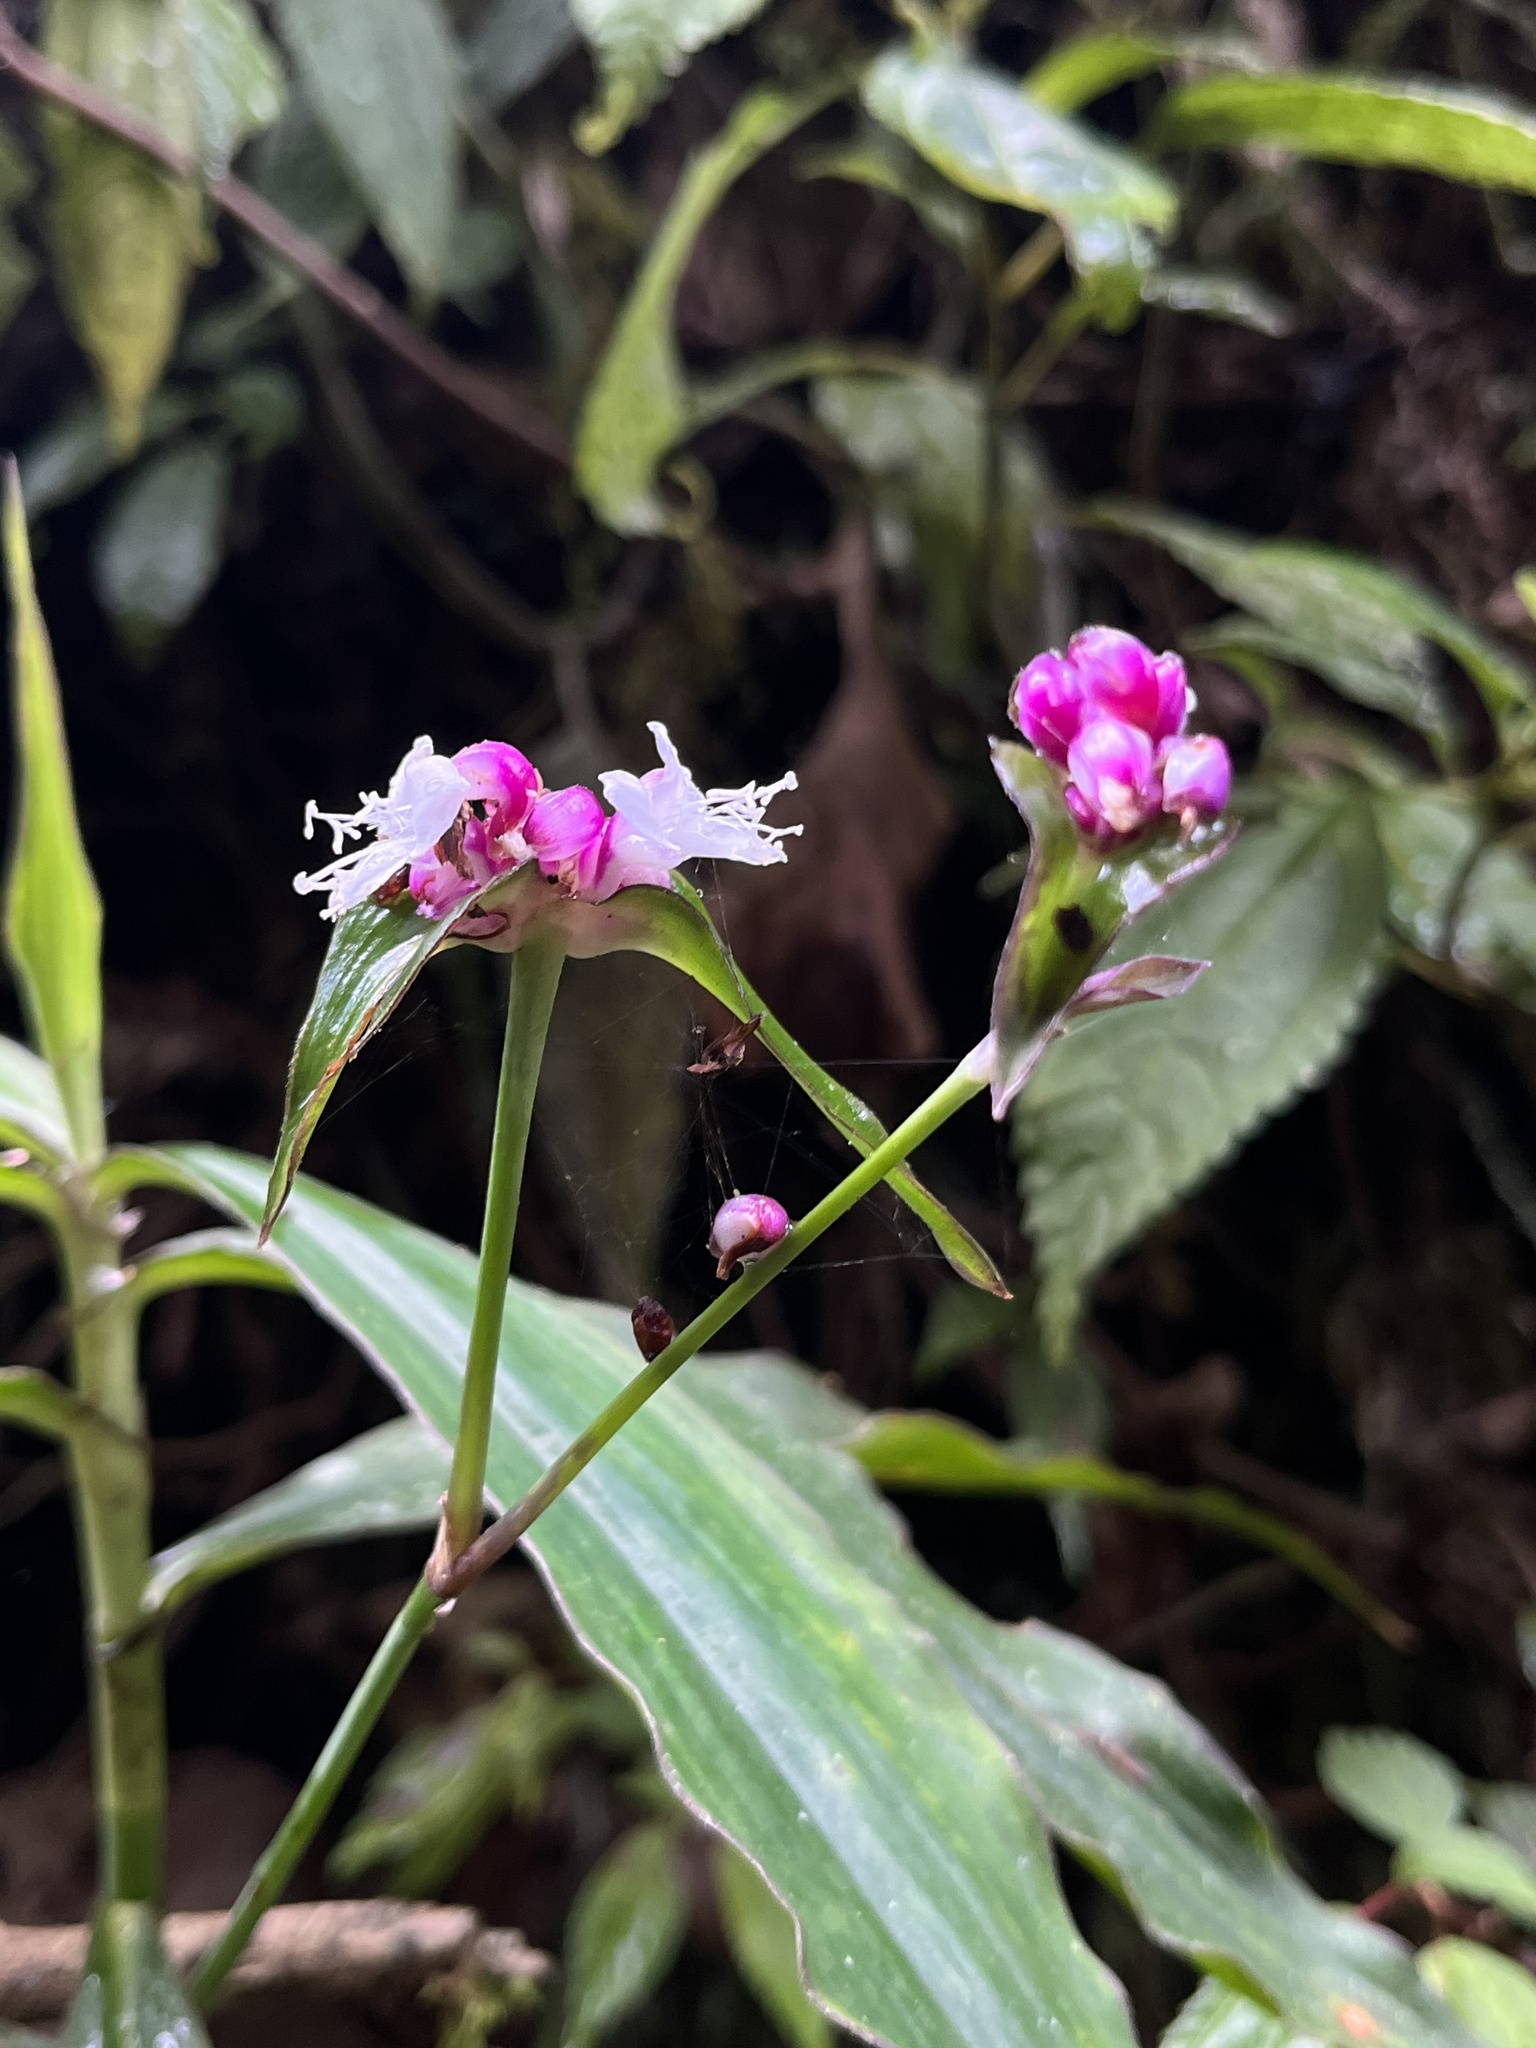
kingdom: Plantae
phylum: Tracheophyta
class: Liliopsida
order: Commelinales
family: Commelinaceae
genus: Tradescantia
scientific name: Tradescantia zanonia
